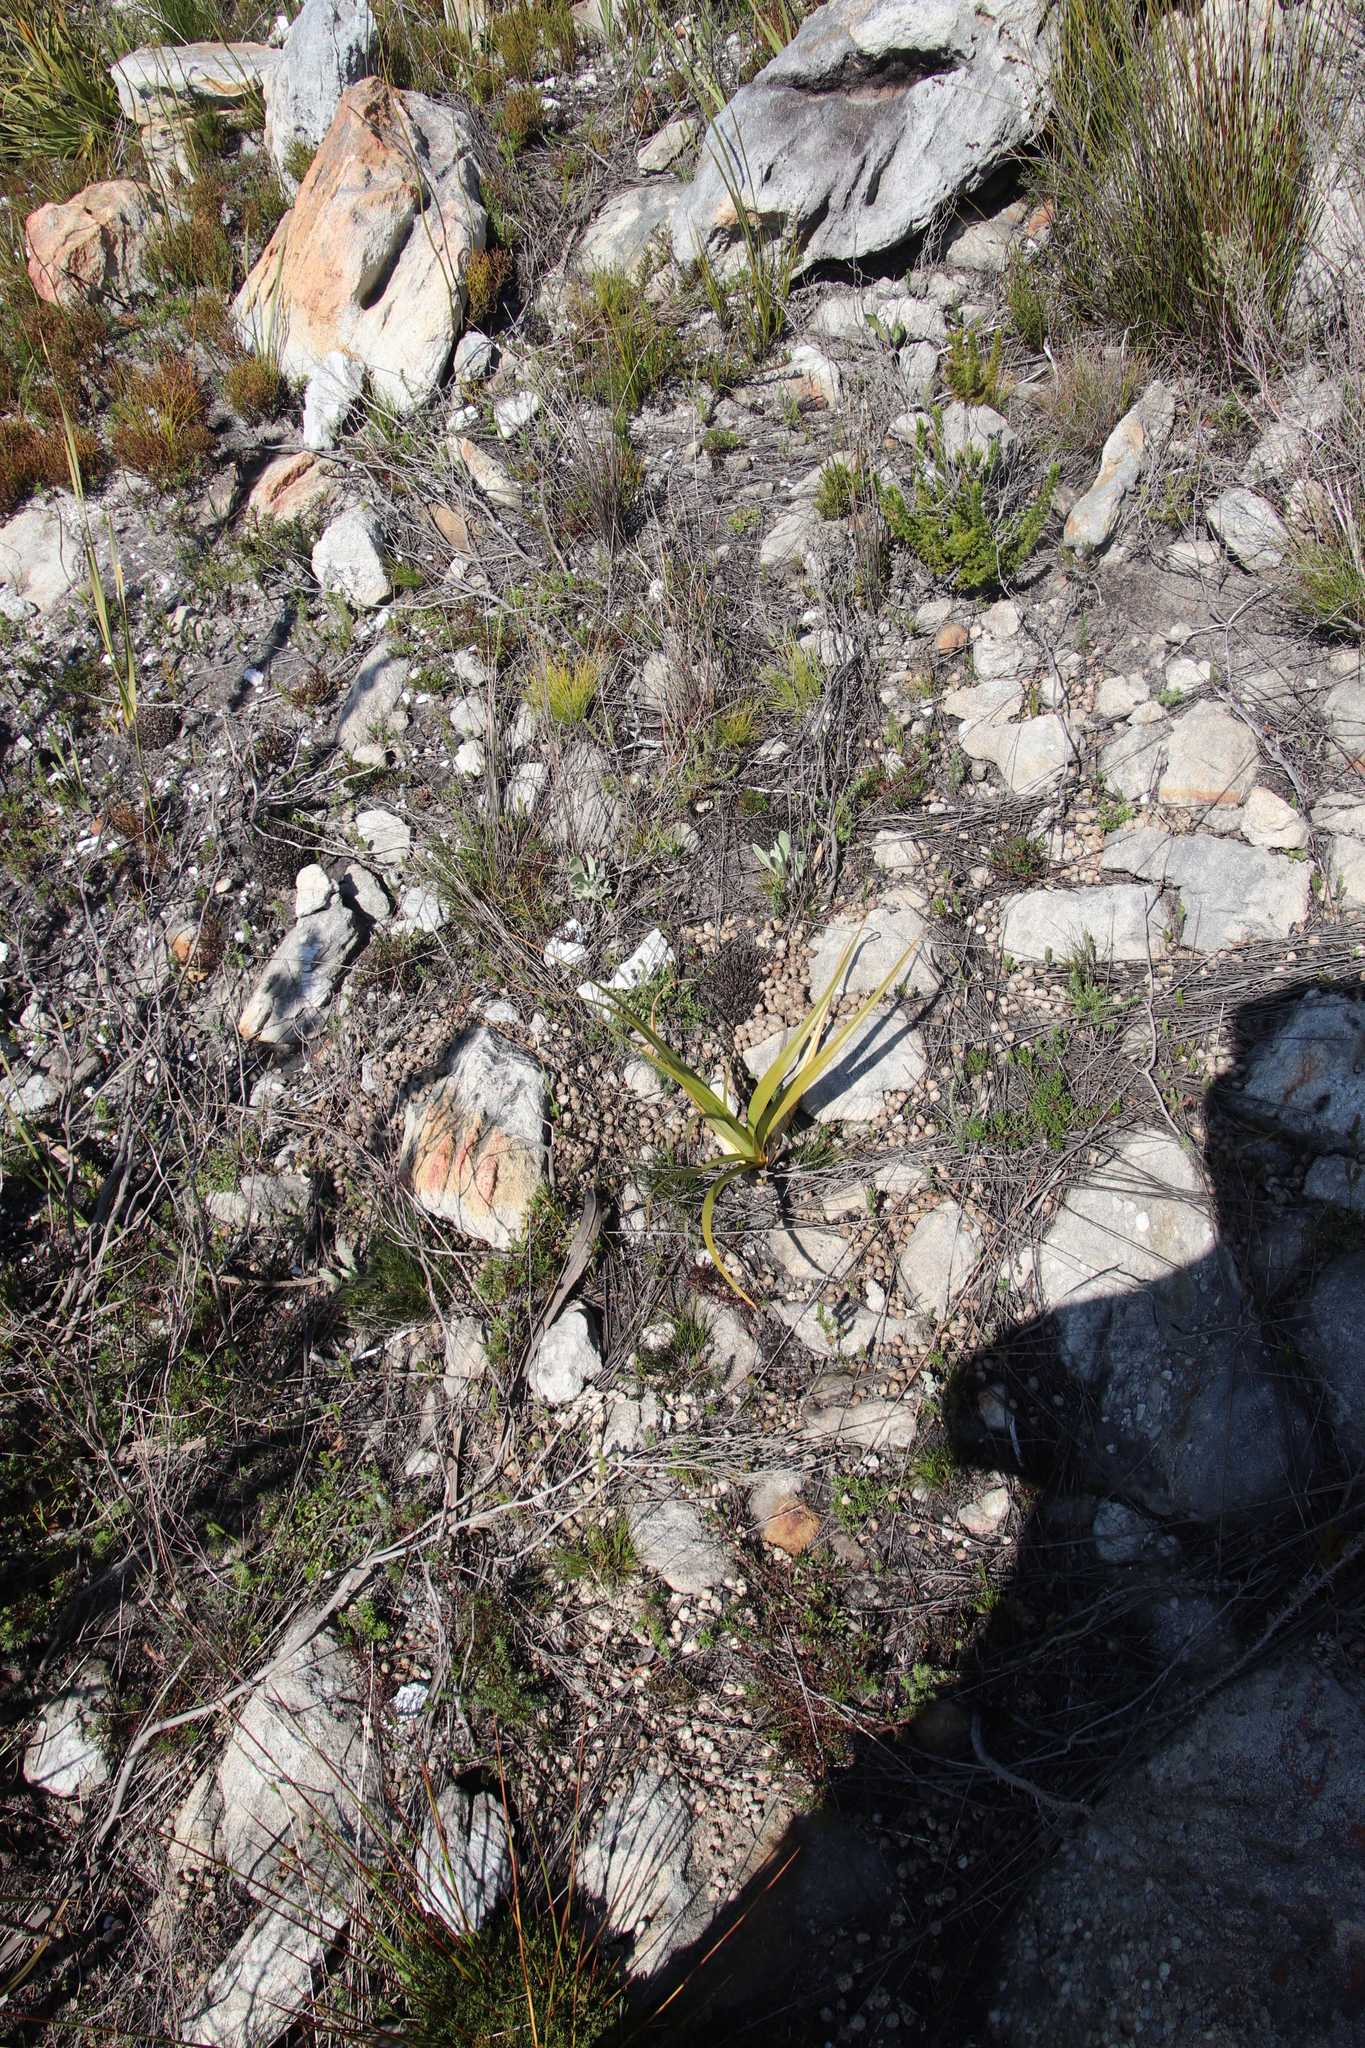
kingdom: Animalia
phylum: Chordata
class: Mammalia
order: Lagomorpha
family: Leporidae
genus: Pronolagus
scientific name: Pronolagus saundersiae
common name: Hewitt's red rock hare
